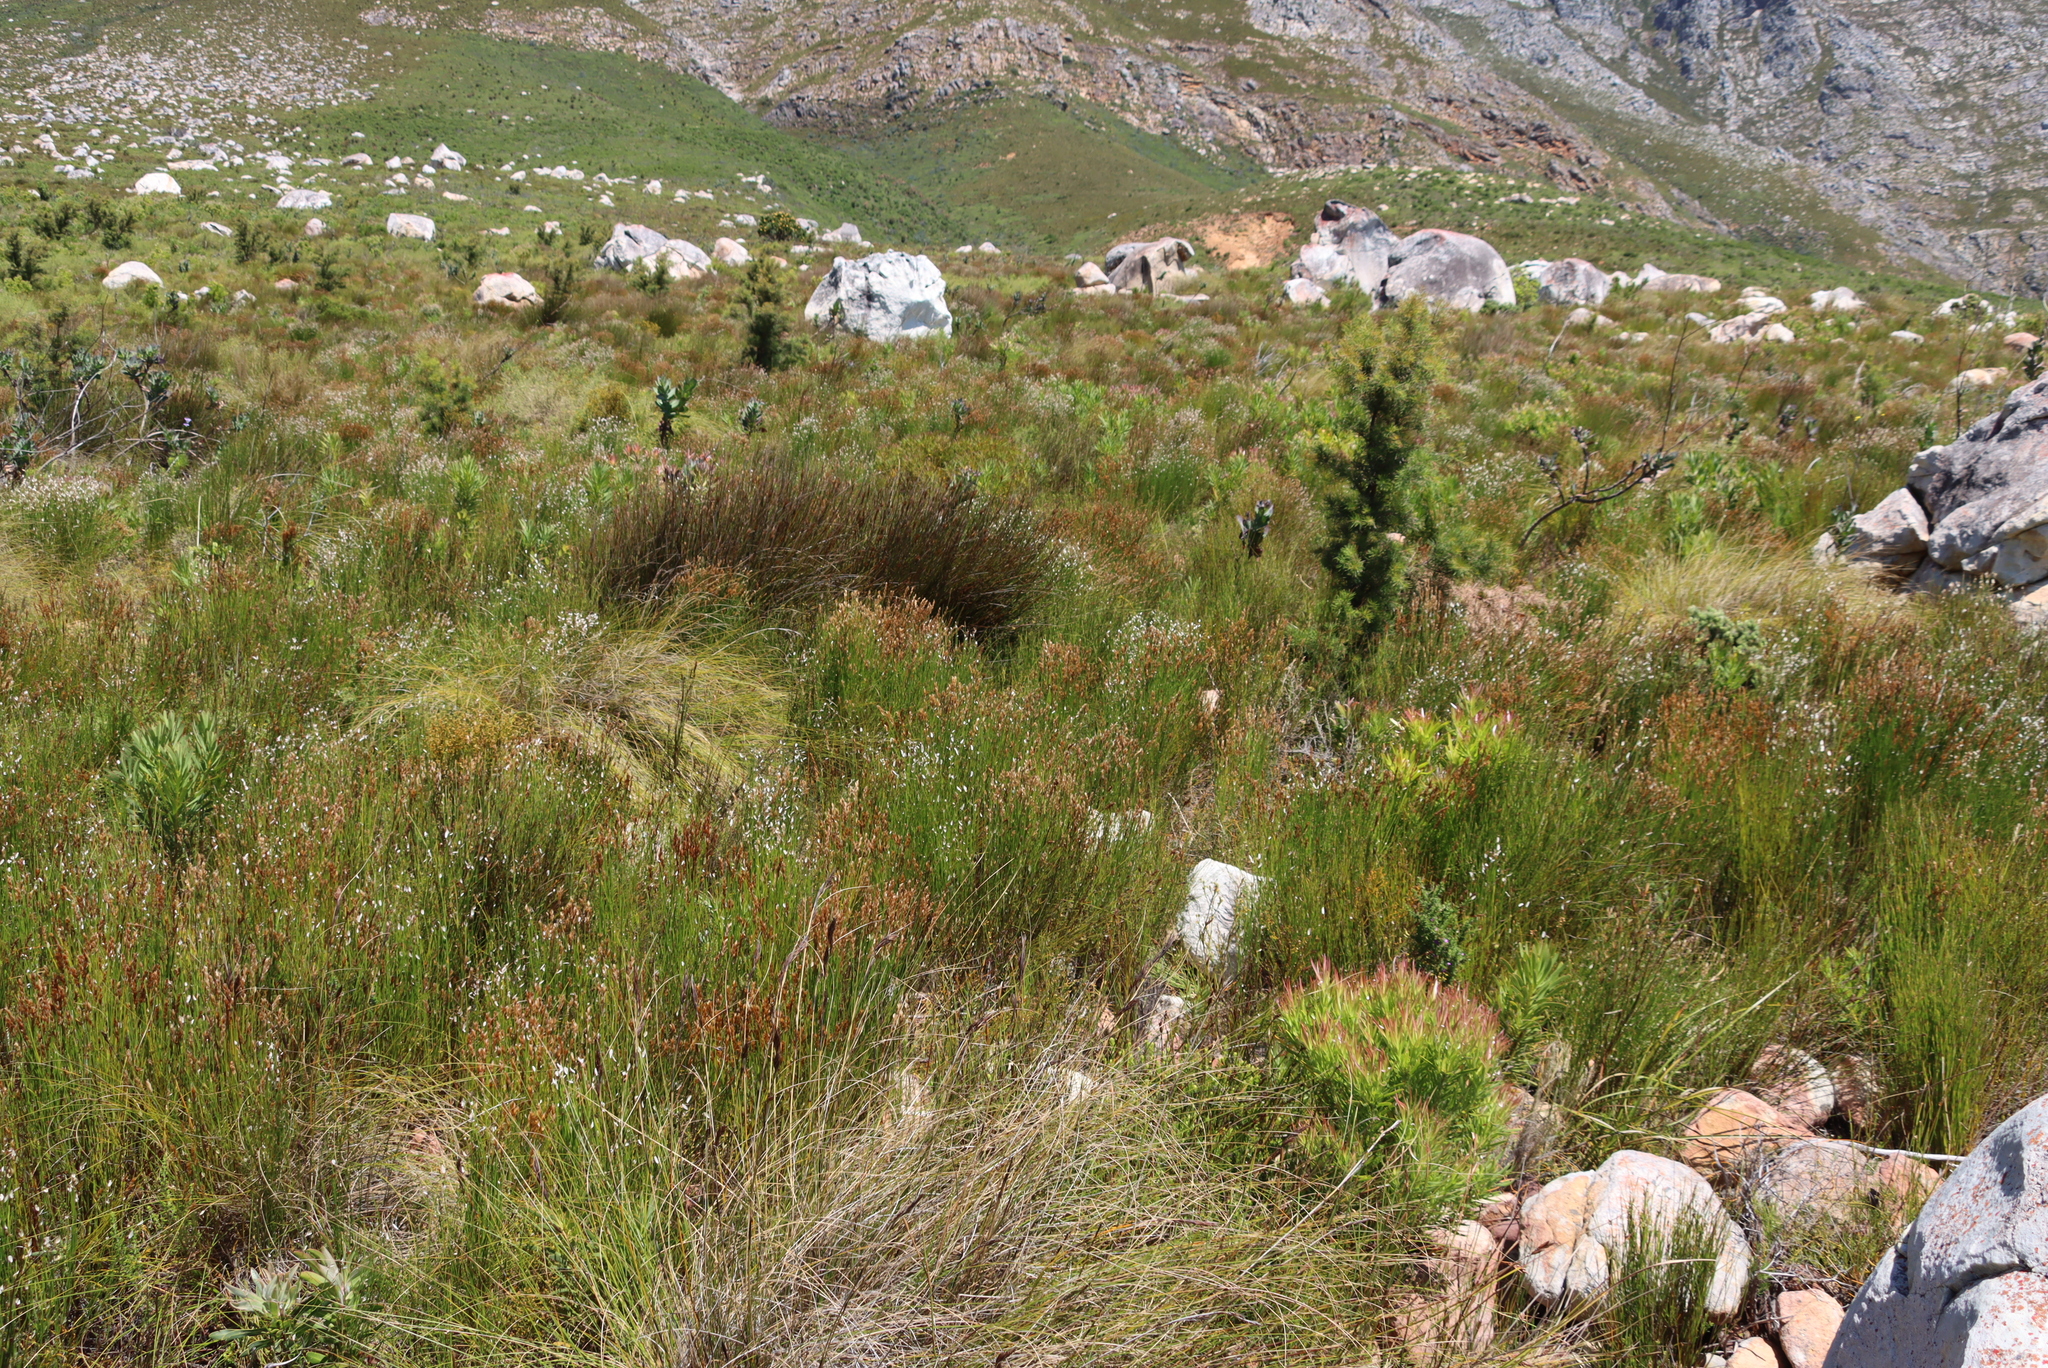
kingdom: Plantae
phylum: Tracheophyta
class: Magnoliopsida
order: Proteales
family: Proteaceae
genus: Hakea
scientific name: Hakea sericea
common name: Needle bush
